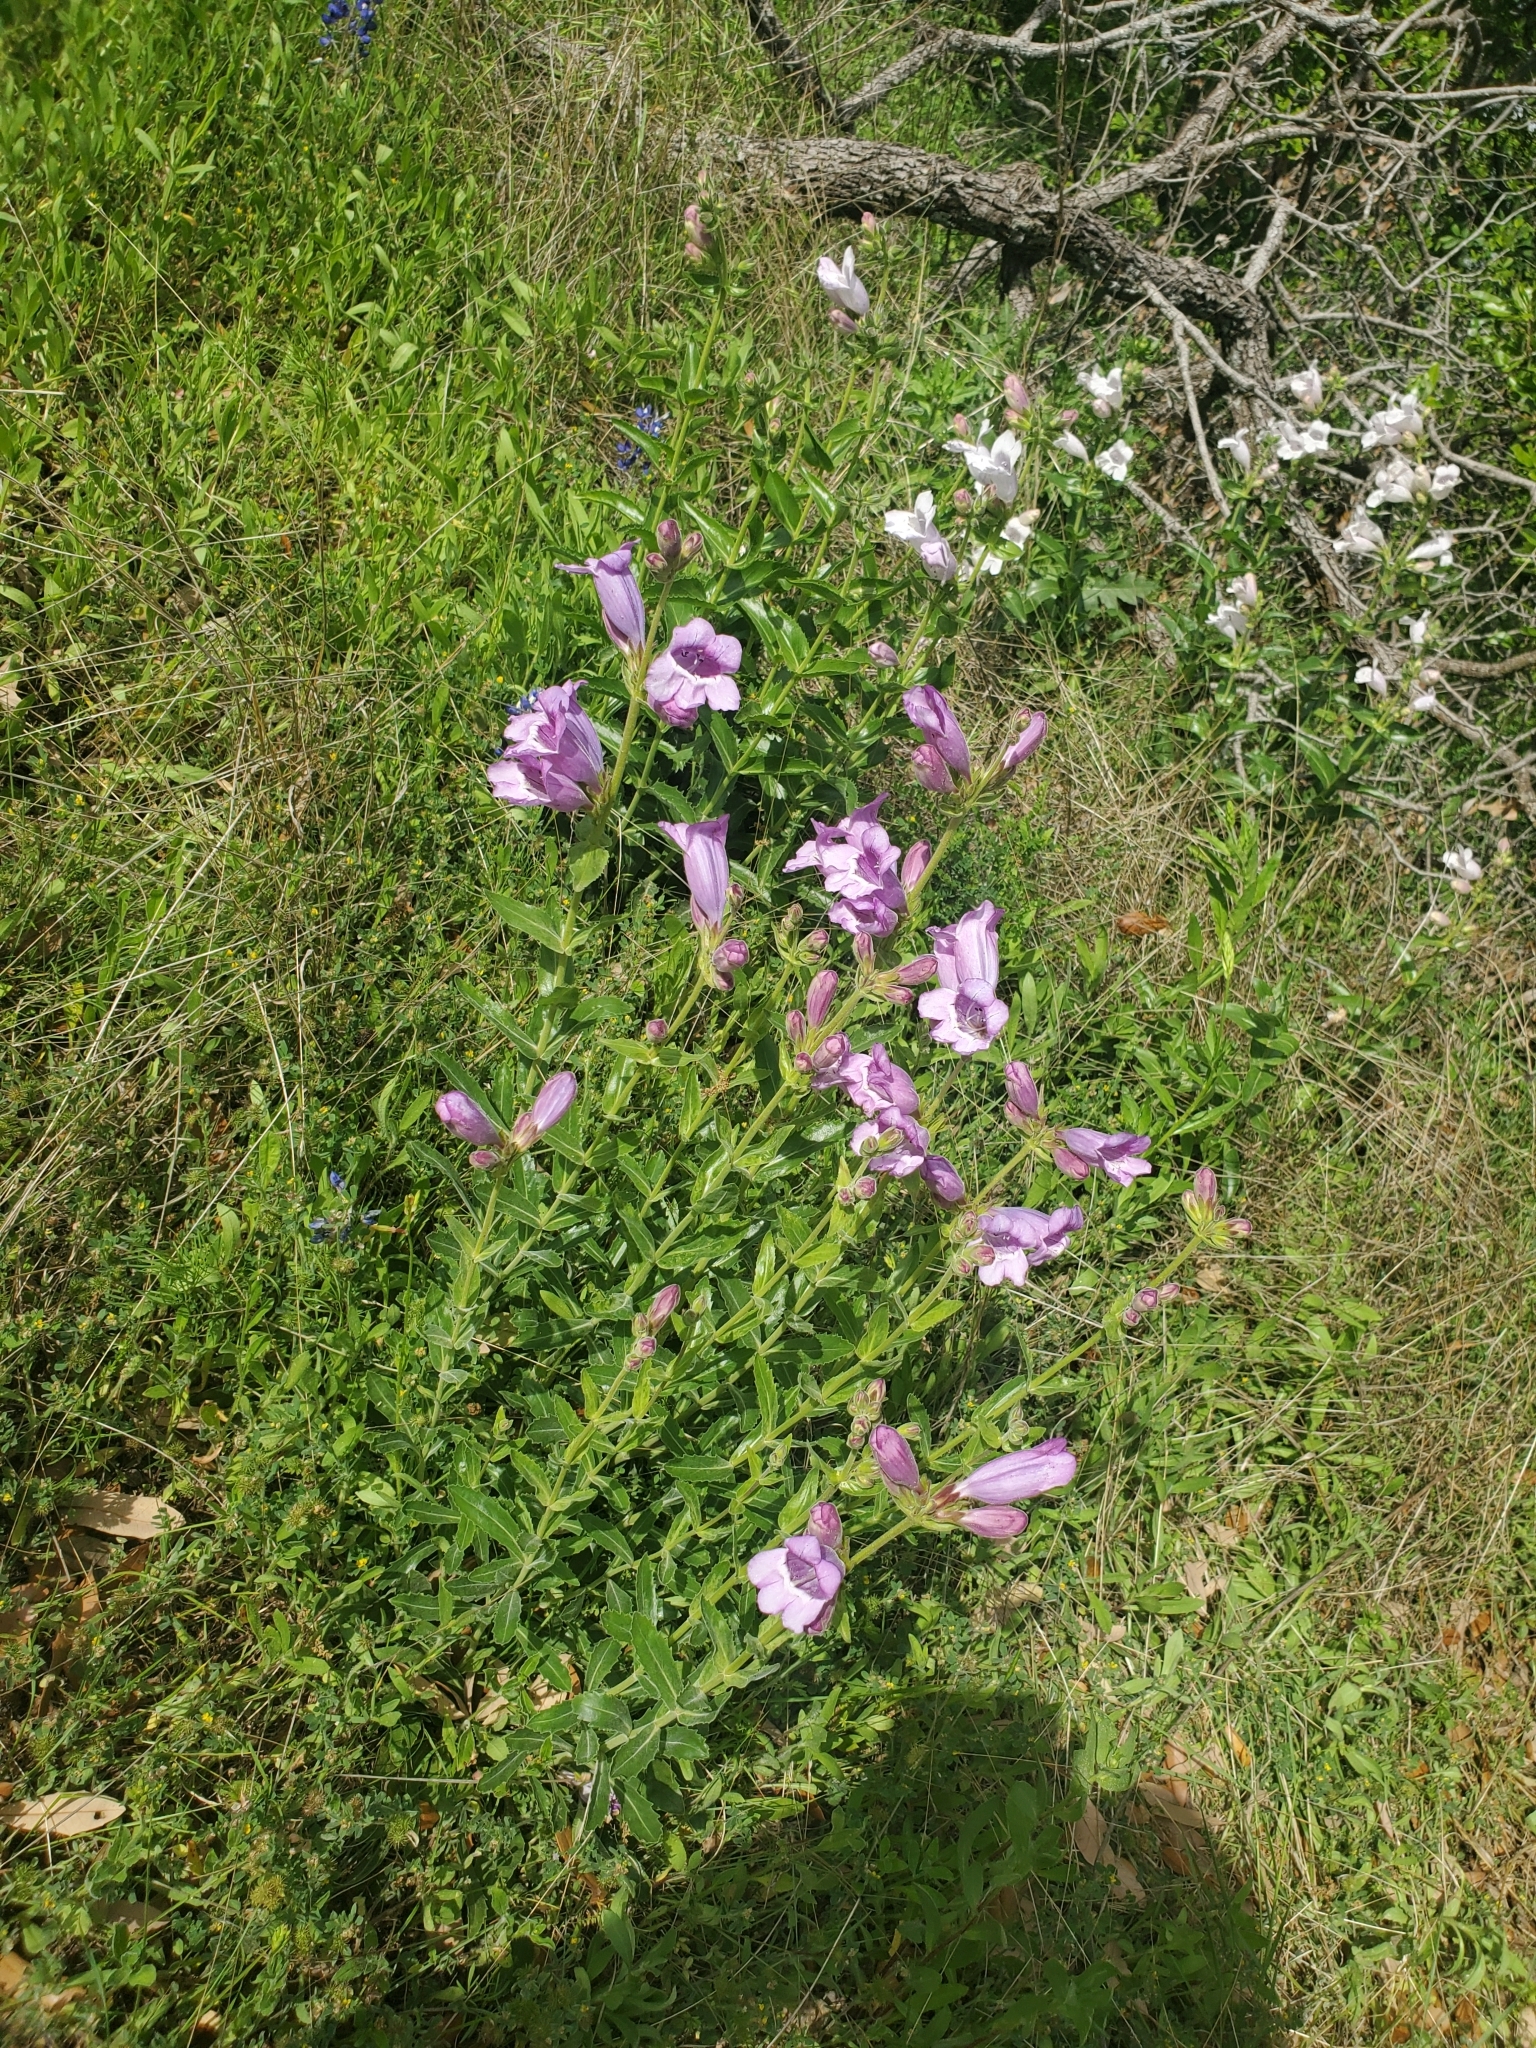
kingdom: Plantae
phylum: Tracheophyta
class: Magnoliopsida
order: Lamiales
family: Plantaginaceae
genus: Penstemon
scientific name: Penstemon cobaea
